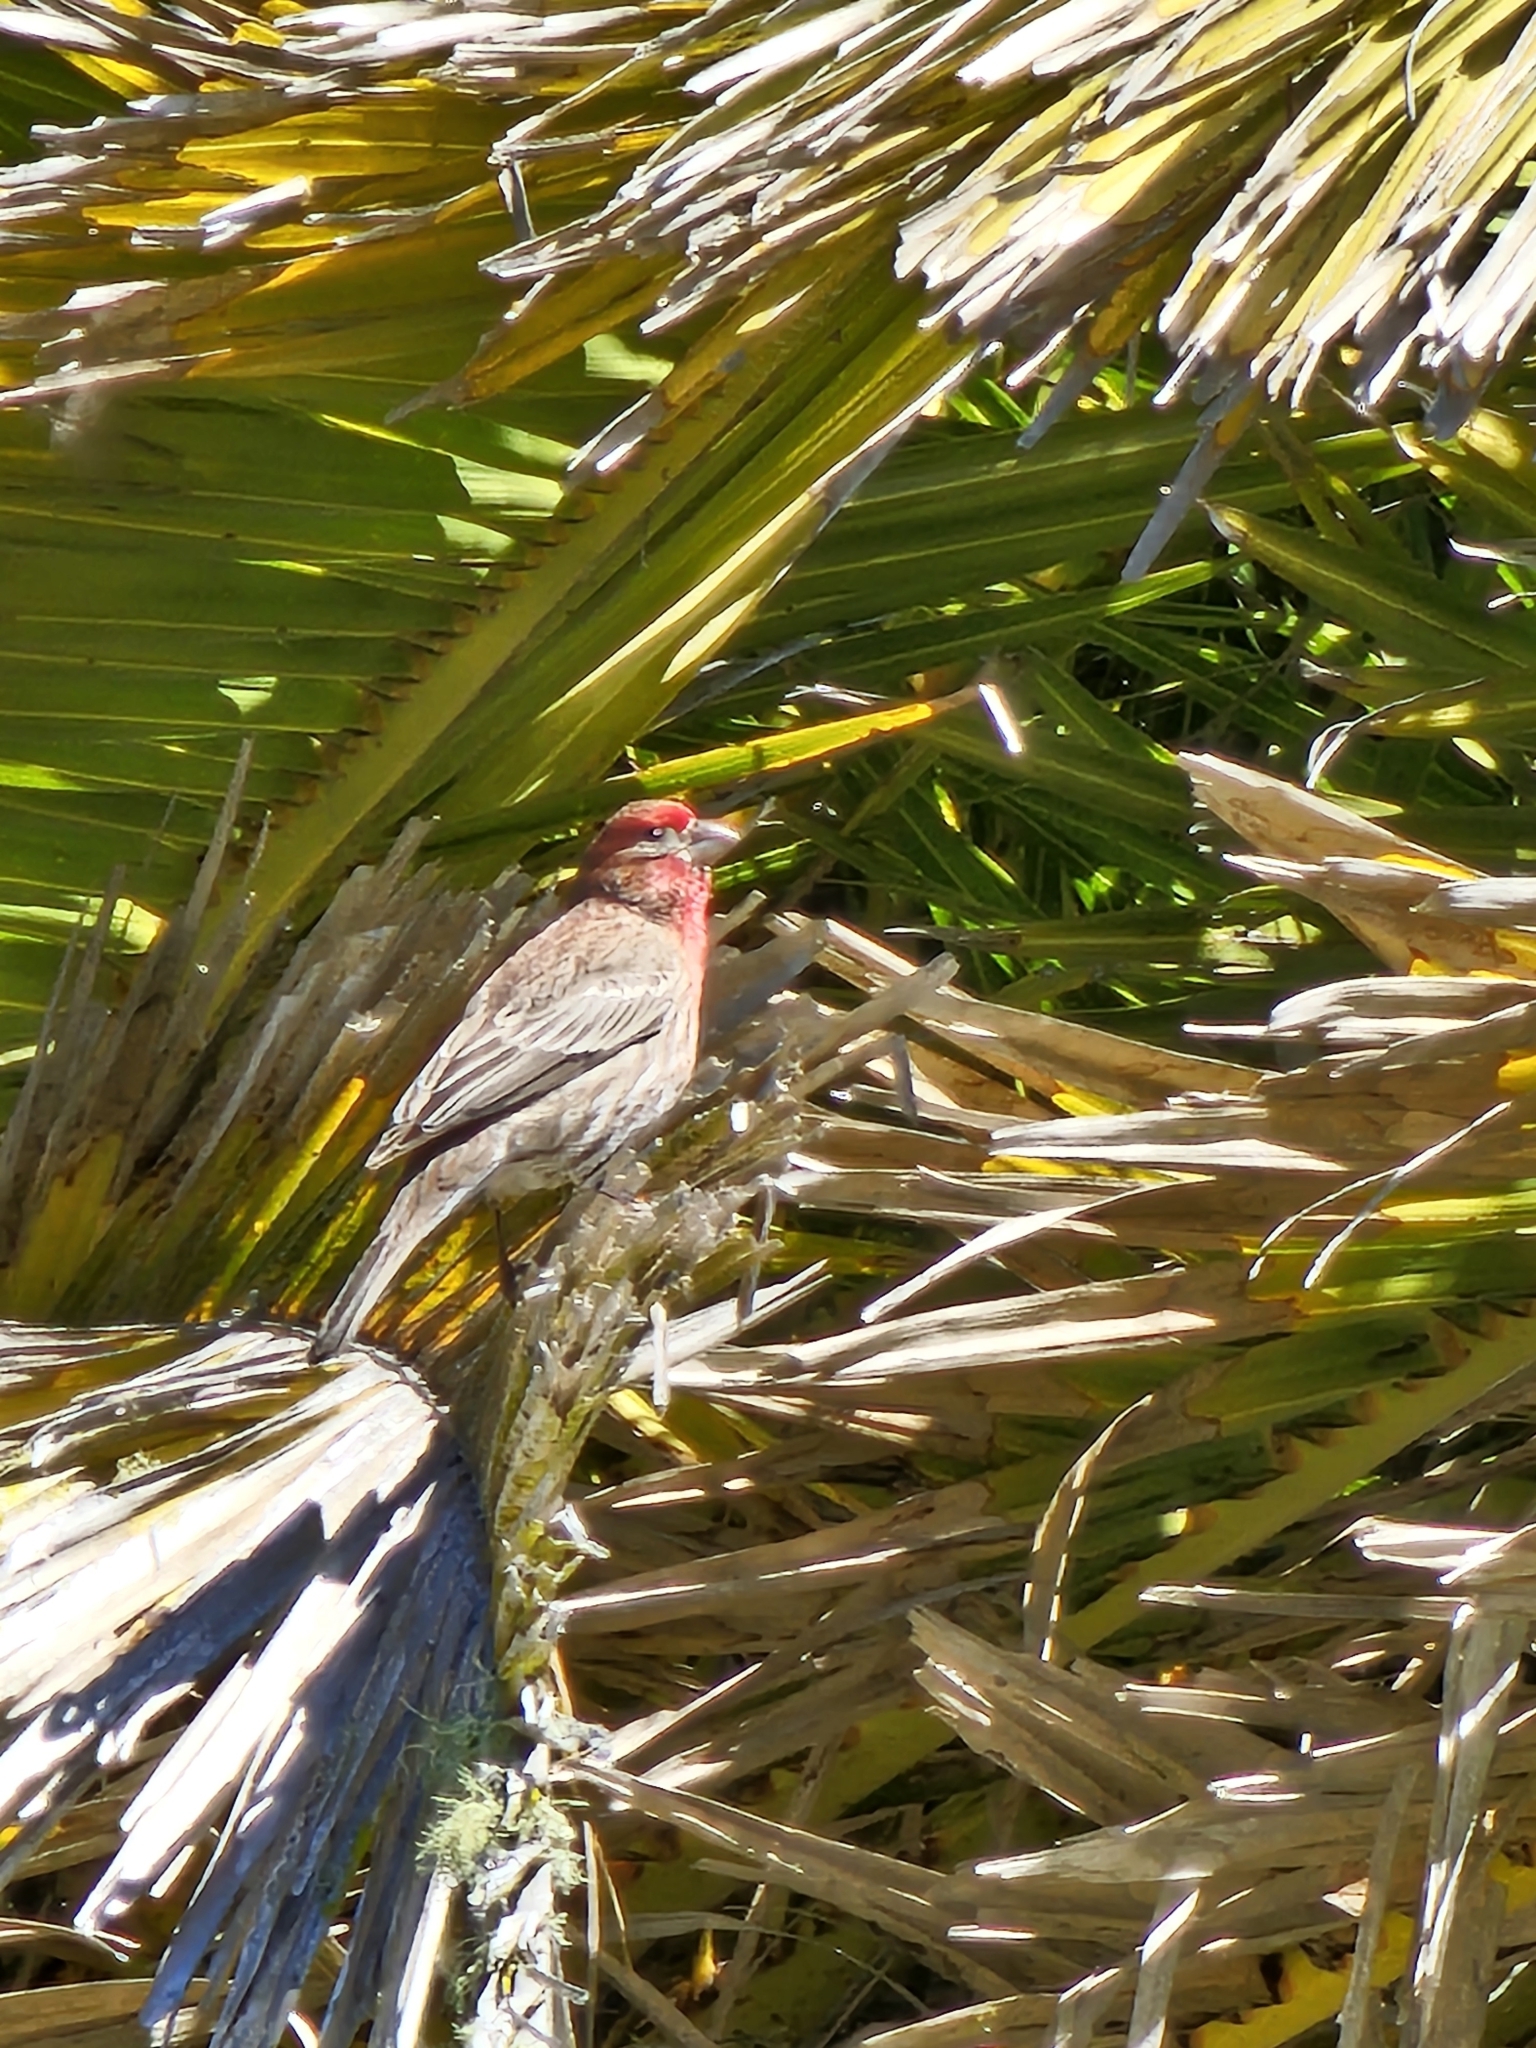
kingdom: Animalia
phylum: Chordata
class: Aves
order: Passeriformes
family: Fringillidae
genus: Haemorhous
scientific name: Haemorhous mexicanus
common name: House finch
